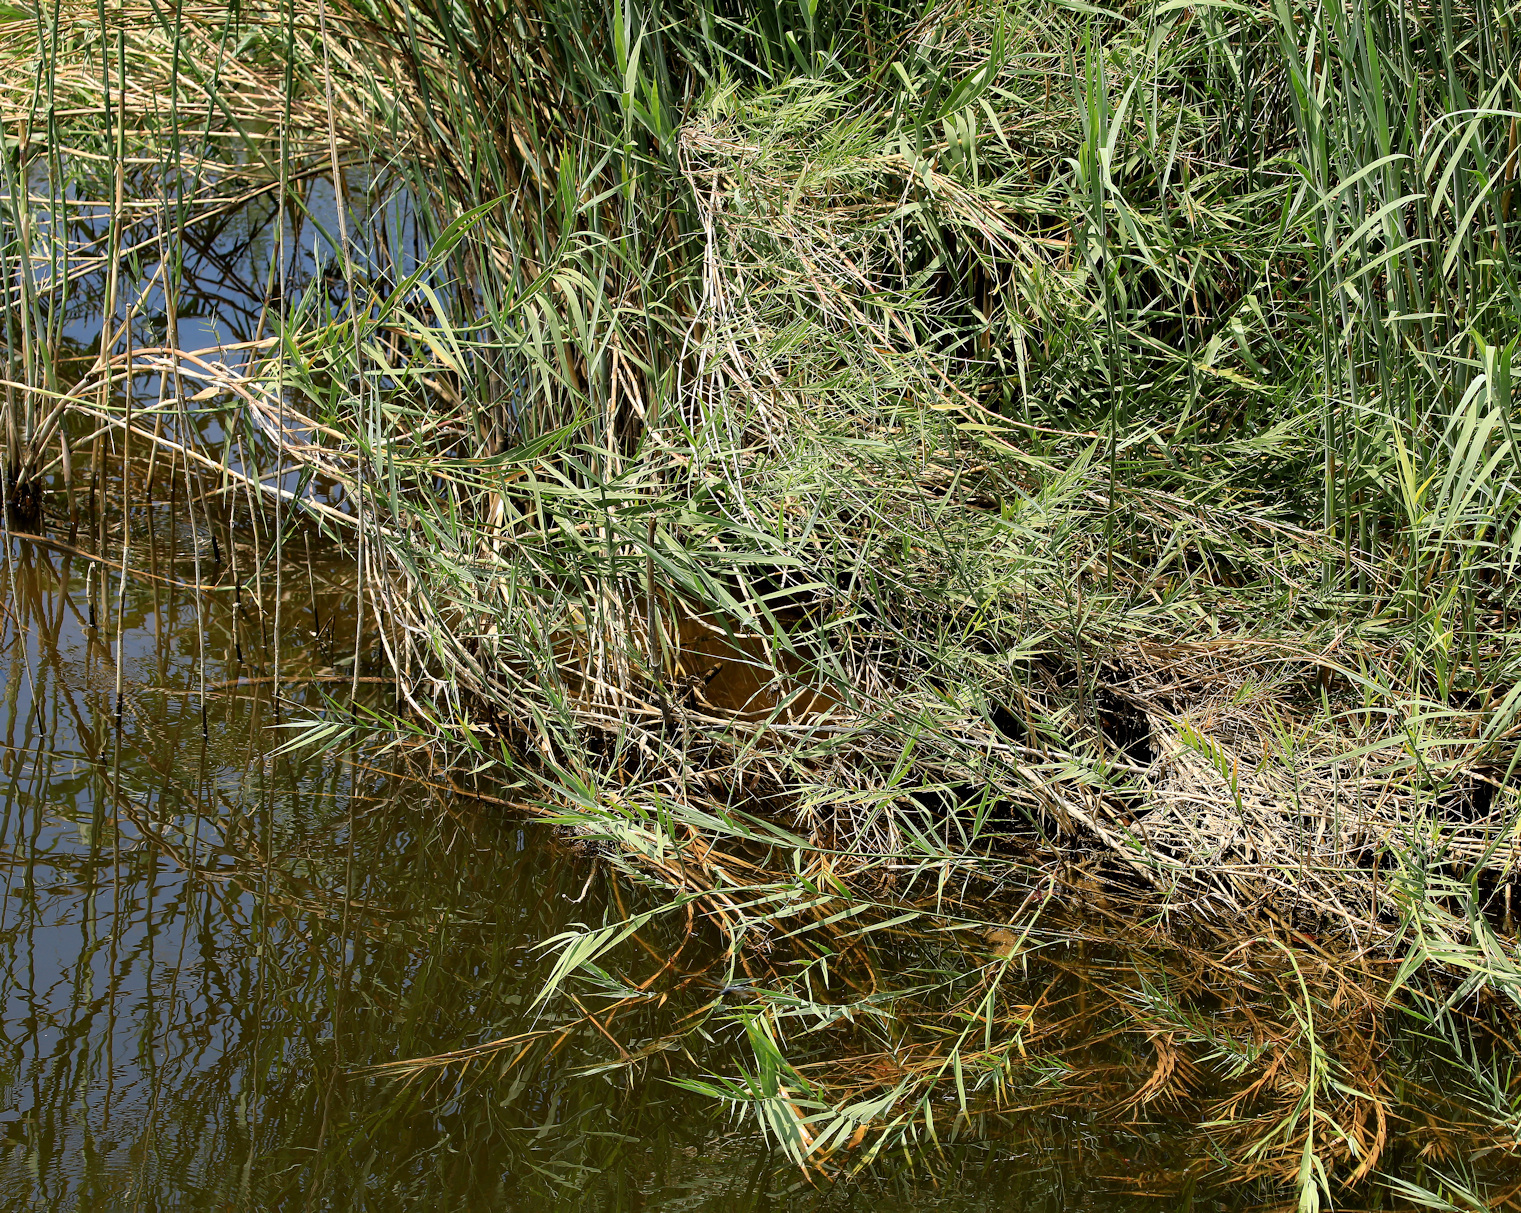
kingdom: Plantae
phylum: Tracheophyta
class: Liliopsida
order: Poales
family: Poaceae
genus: Phragmites
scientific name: Phragmites mauritianus
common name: Reed grass
